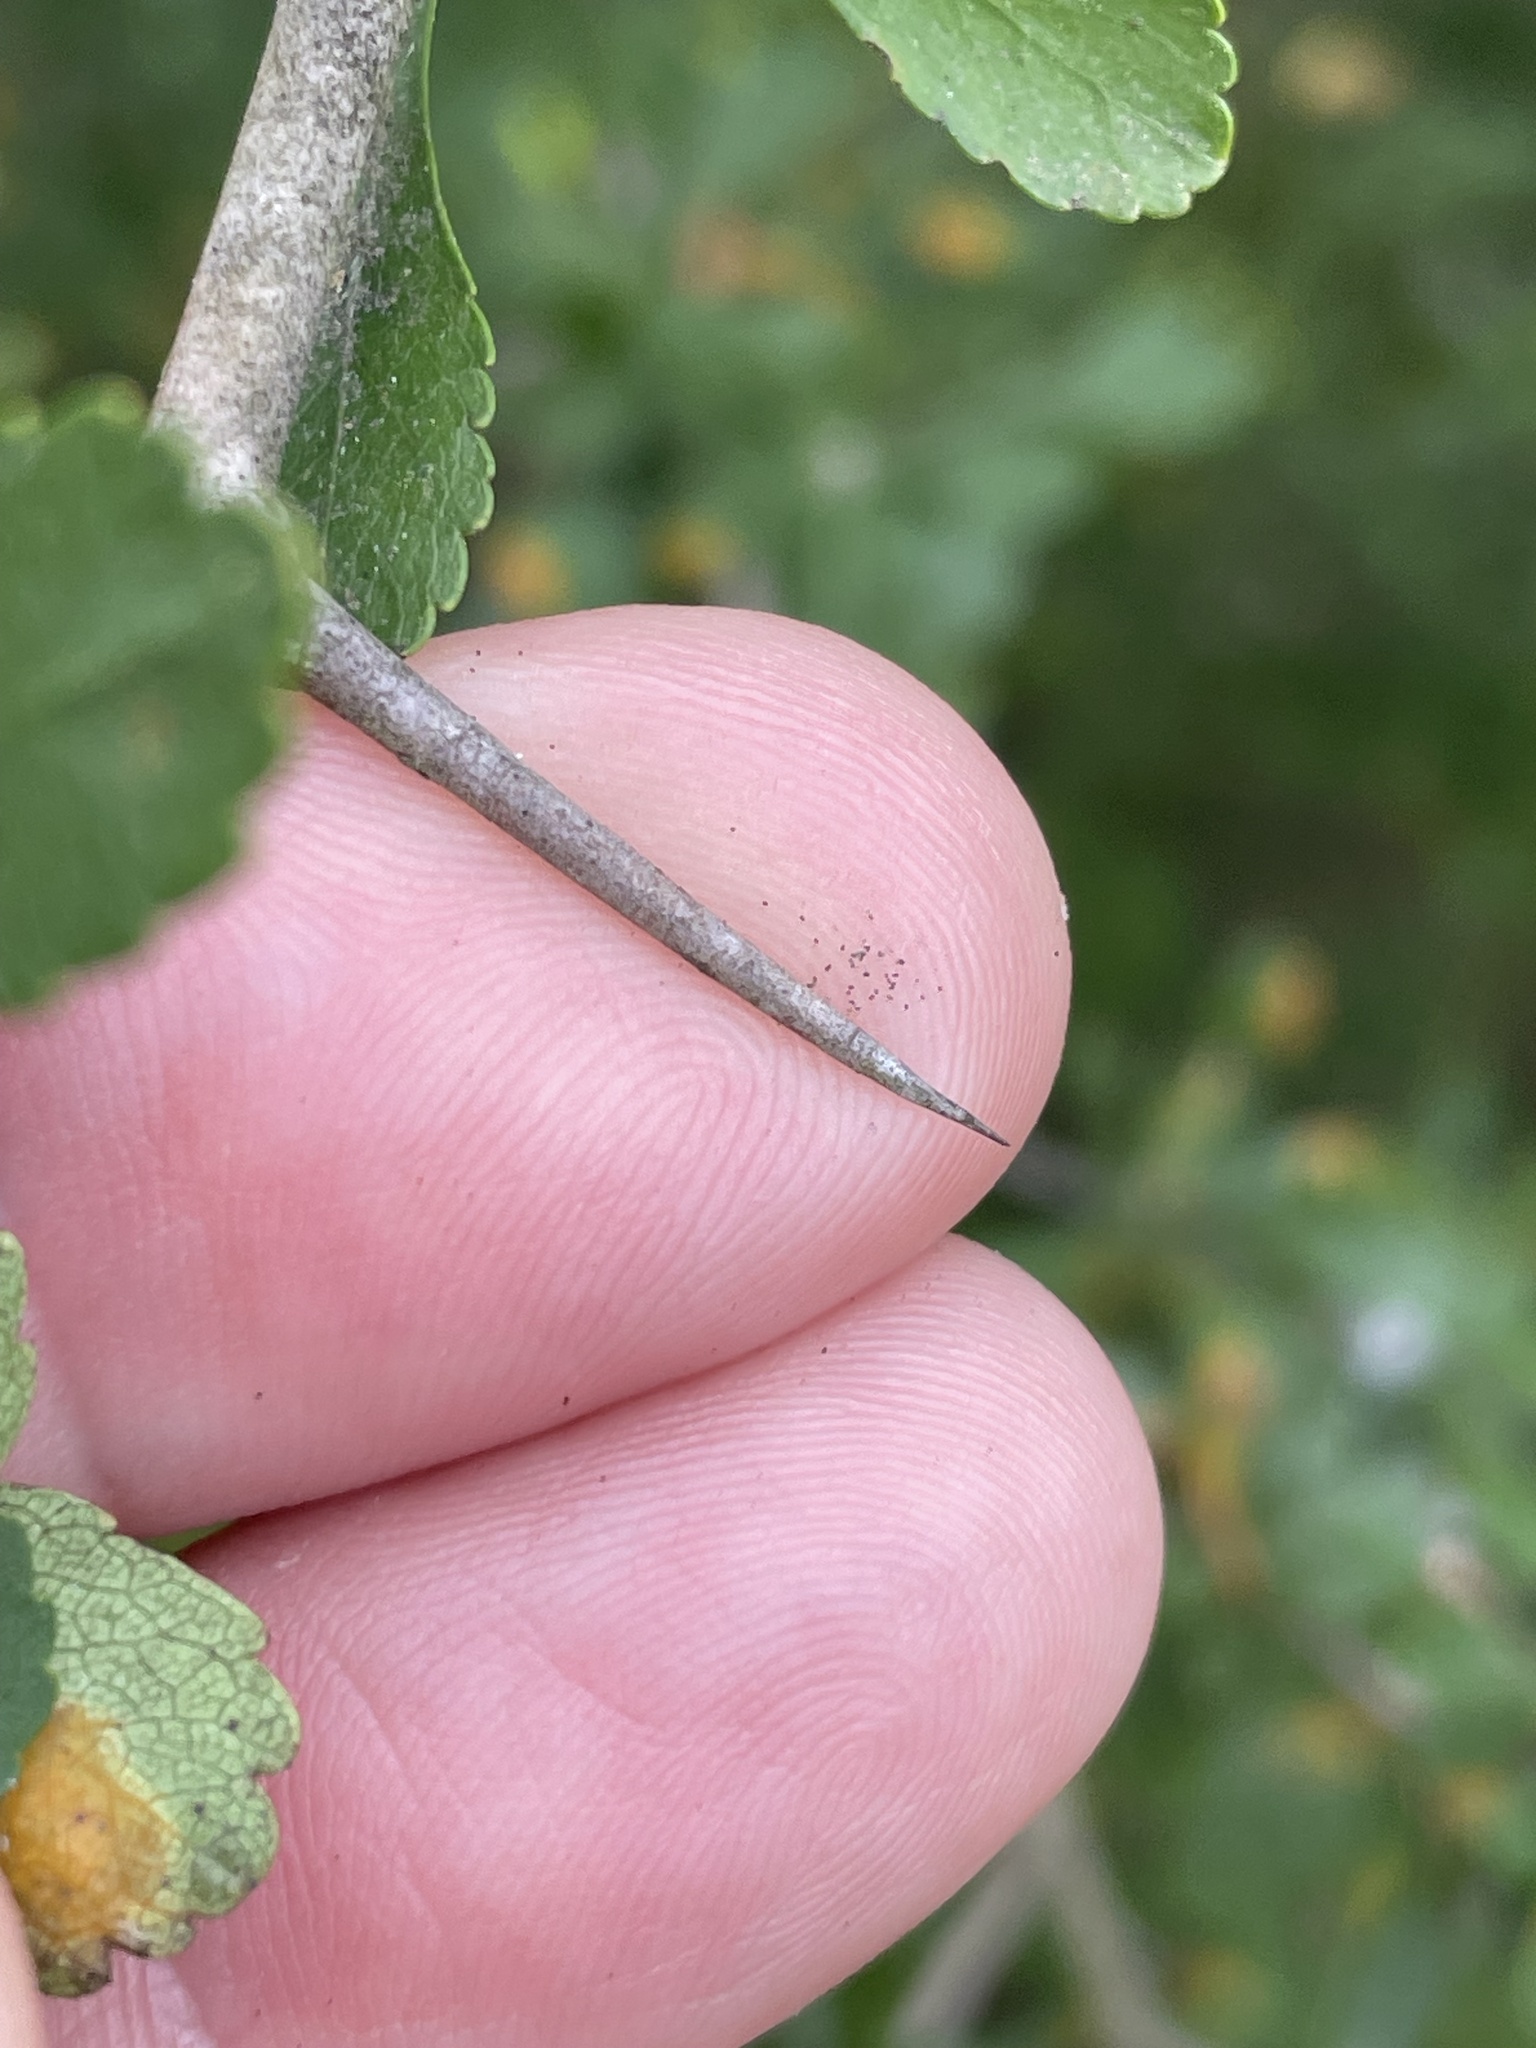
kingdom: Plantae
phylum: Tracheophyta
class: Magnoliopsida
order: Rosales
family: Rosaceae
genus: Crataegus
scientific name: Crataegus spathulata
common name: Littlehip hawthorn
